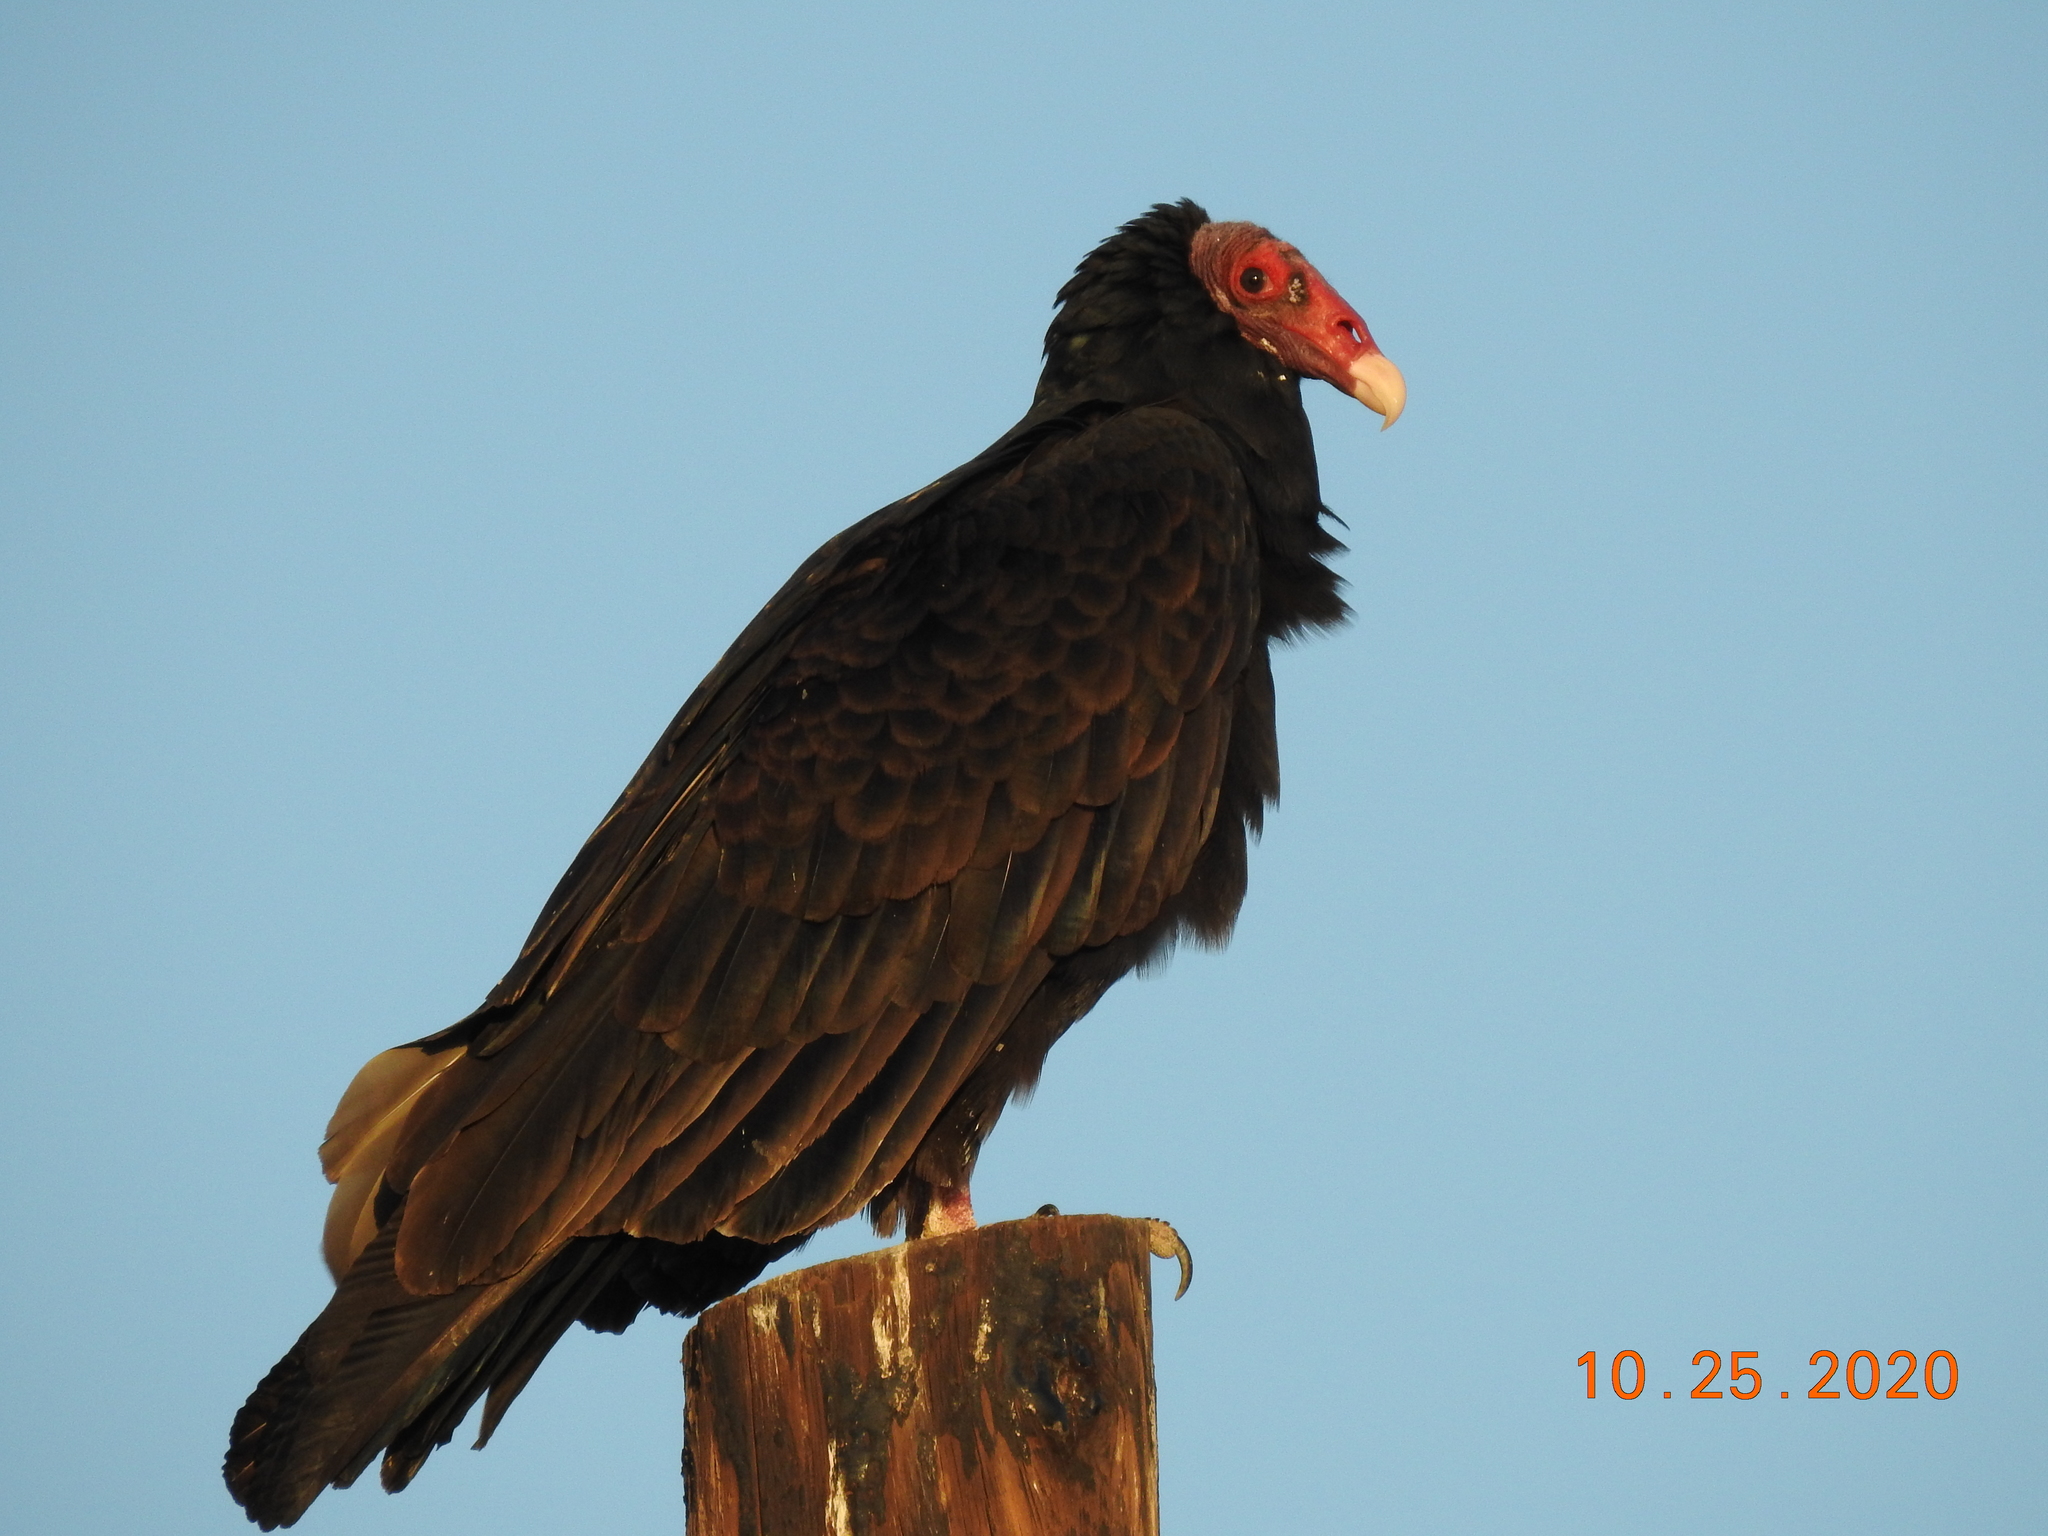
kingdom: Animalia
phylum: Chordata
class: Aves
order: Accipitriformes
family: Cathartidae
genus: Cathartes
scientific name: Cathartes aura
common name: Turkey vulture
